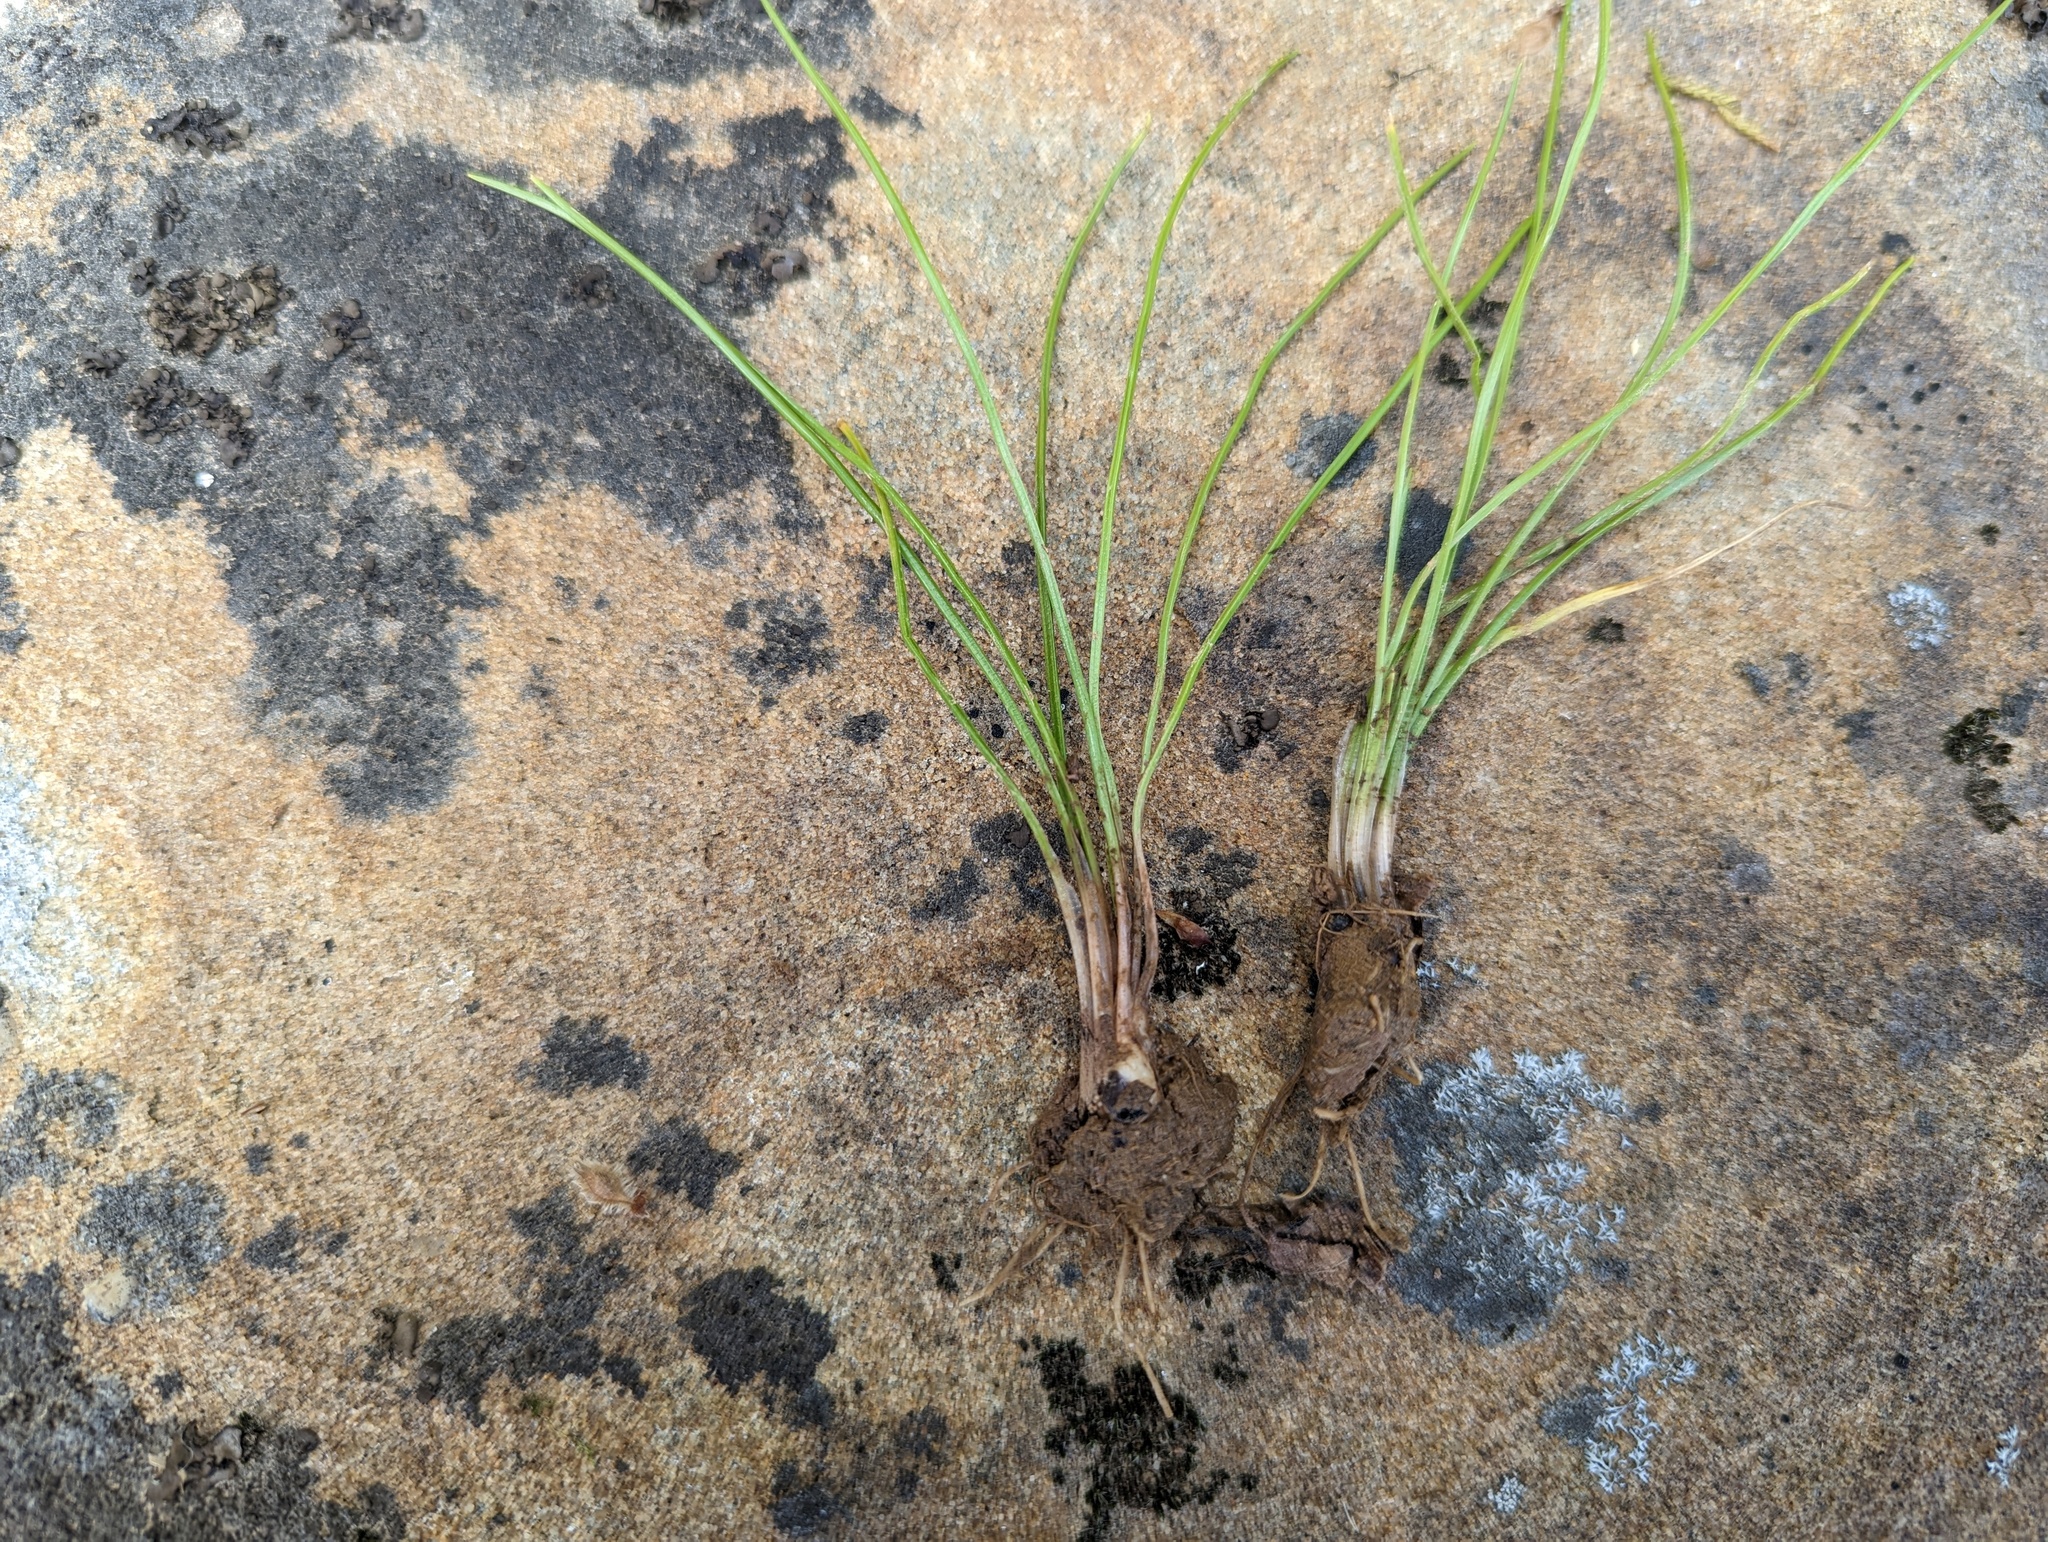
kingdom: Plantae
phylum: Tracheophyta
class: Lycopodiopsida
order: Isoetales
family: Isoetaceae
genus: Isoetes
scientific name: Isoetes melanopoda
